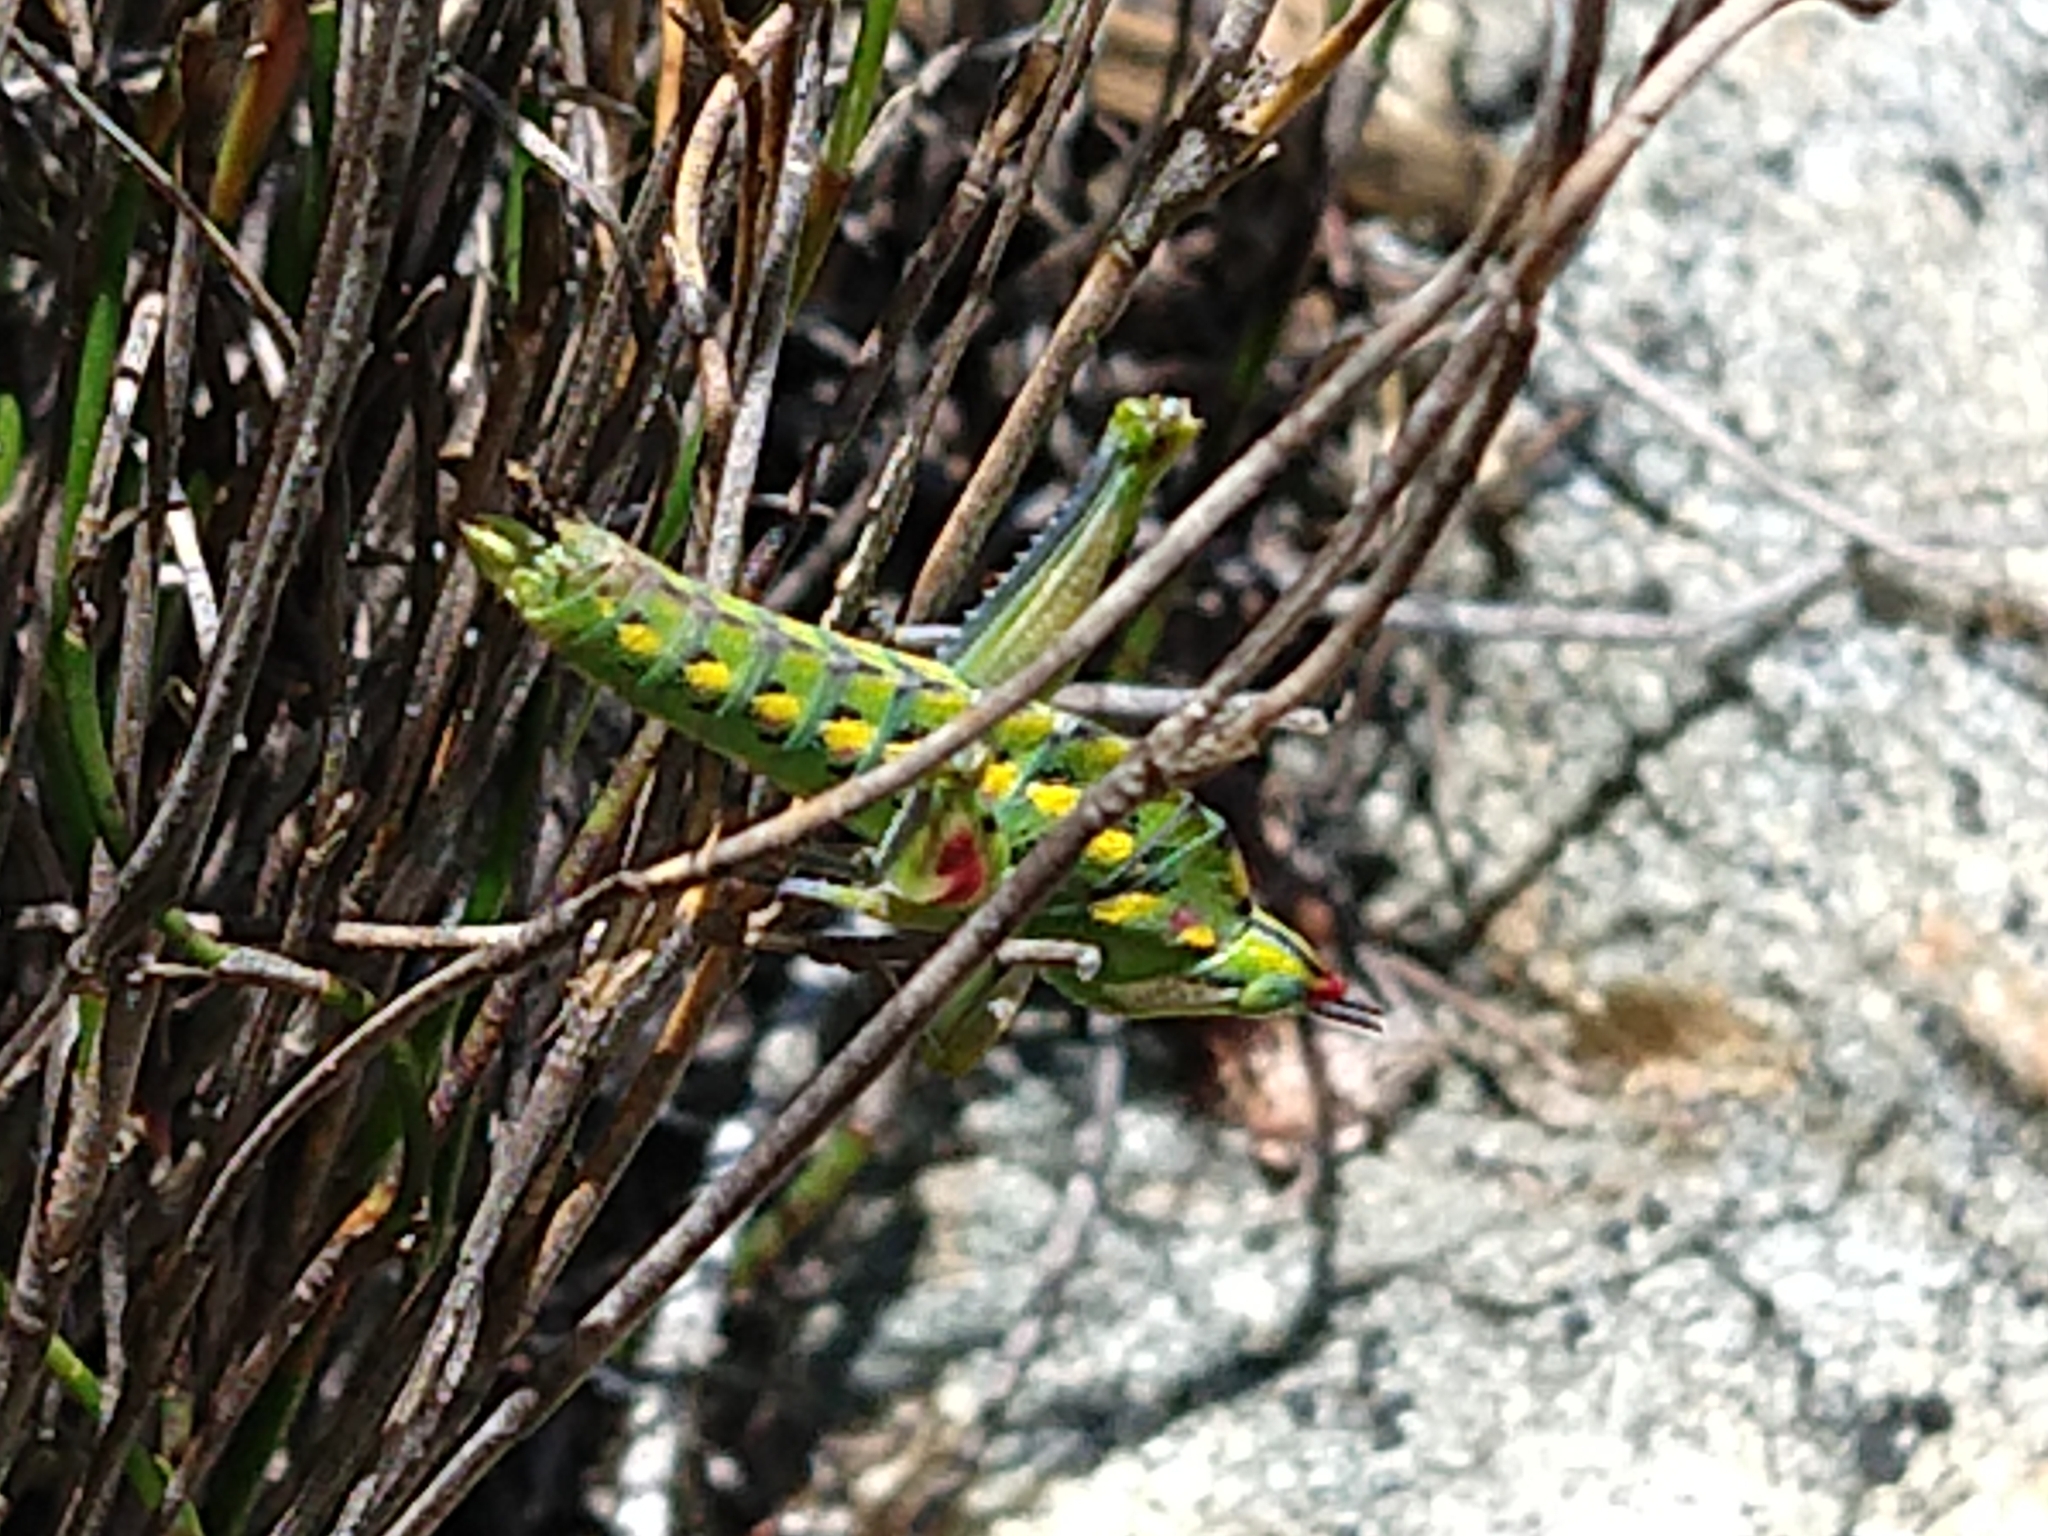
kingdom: Animalia
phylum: Arthropoda
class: Insecta
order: Orthoptera
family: Thericleidae
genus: Thericlesiella
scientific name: Thericlesiella meridionalis
